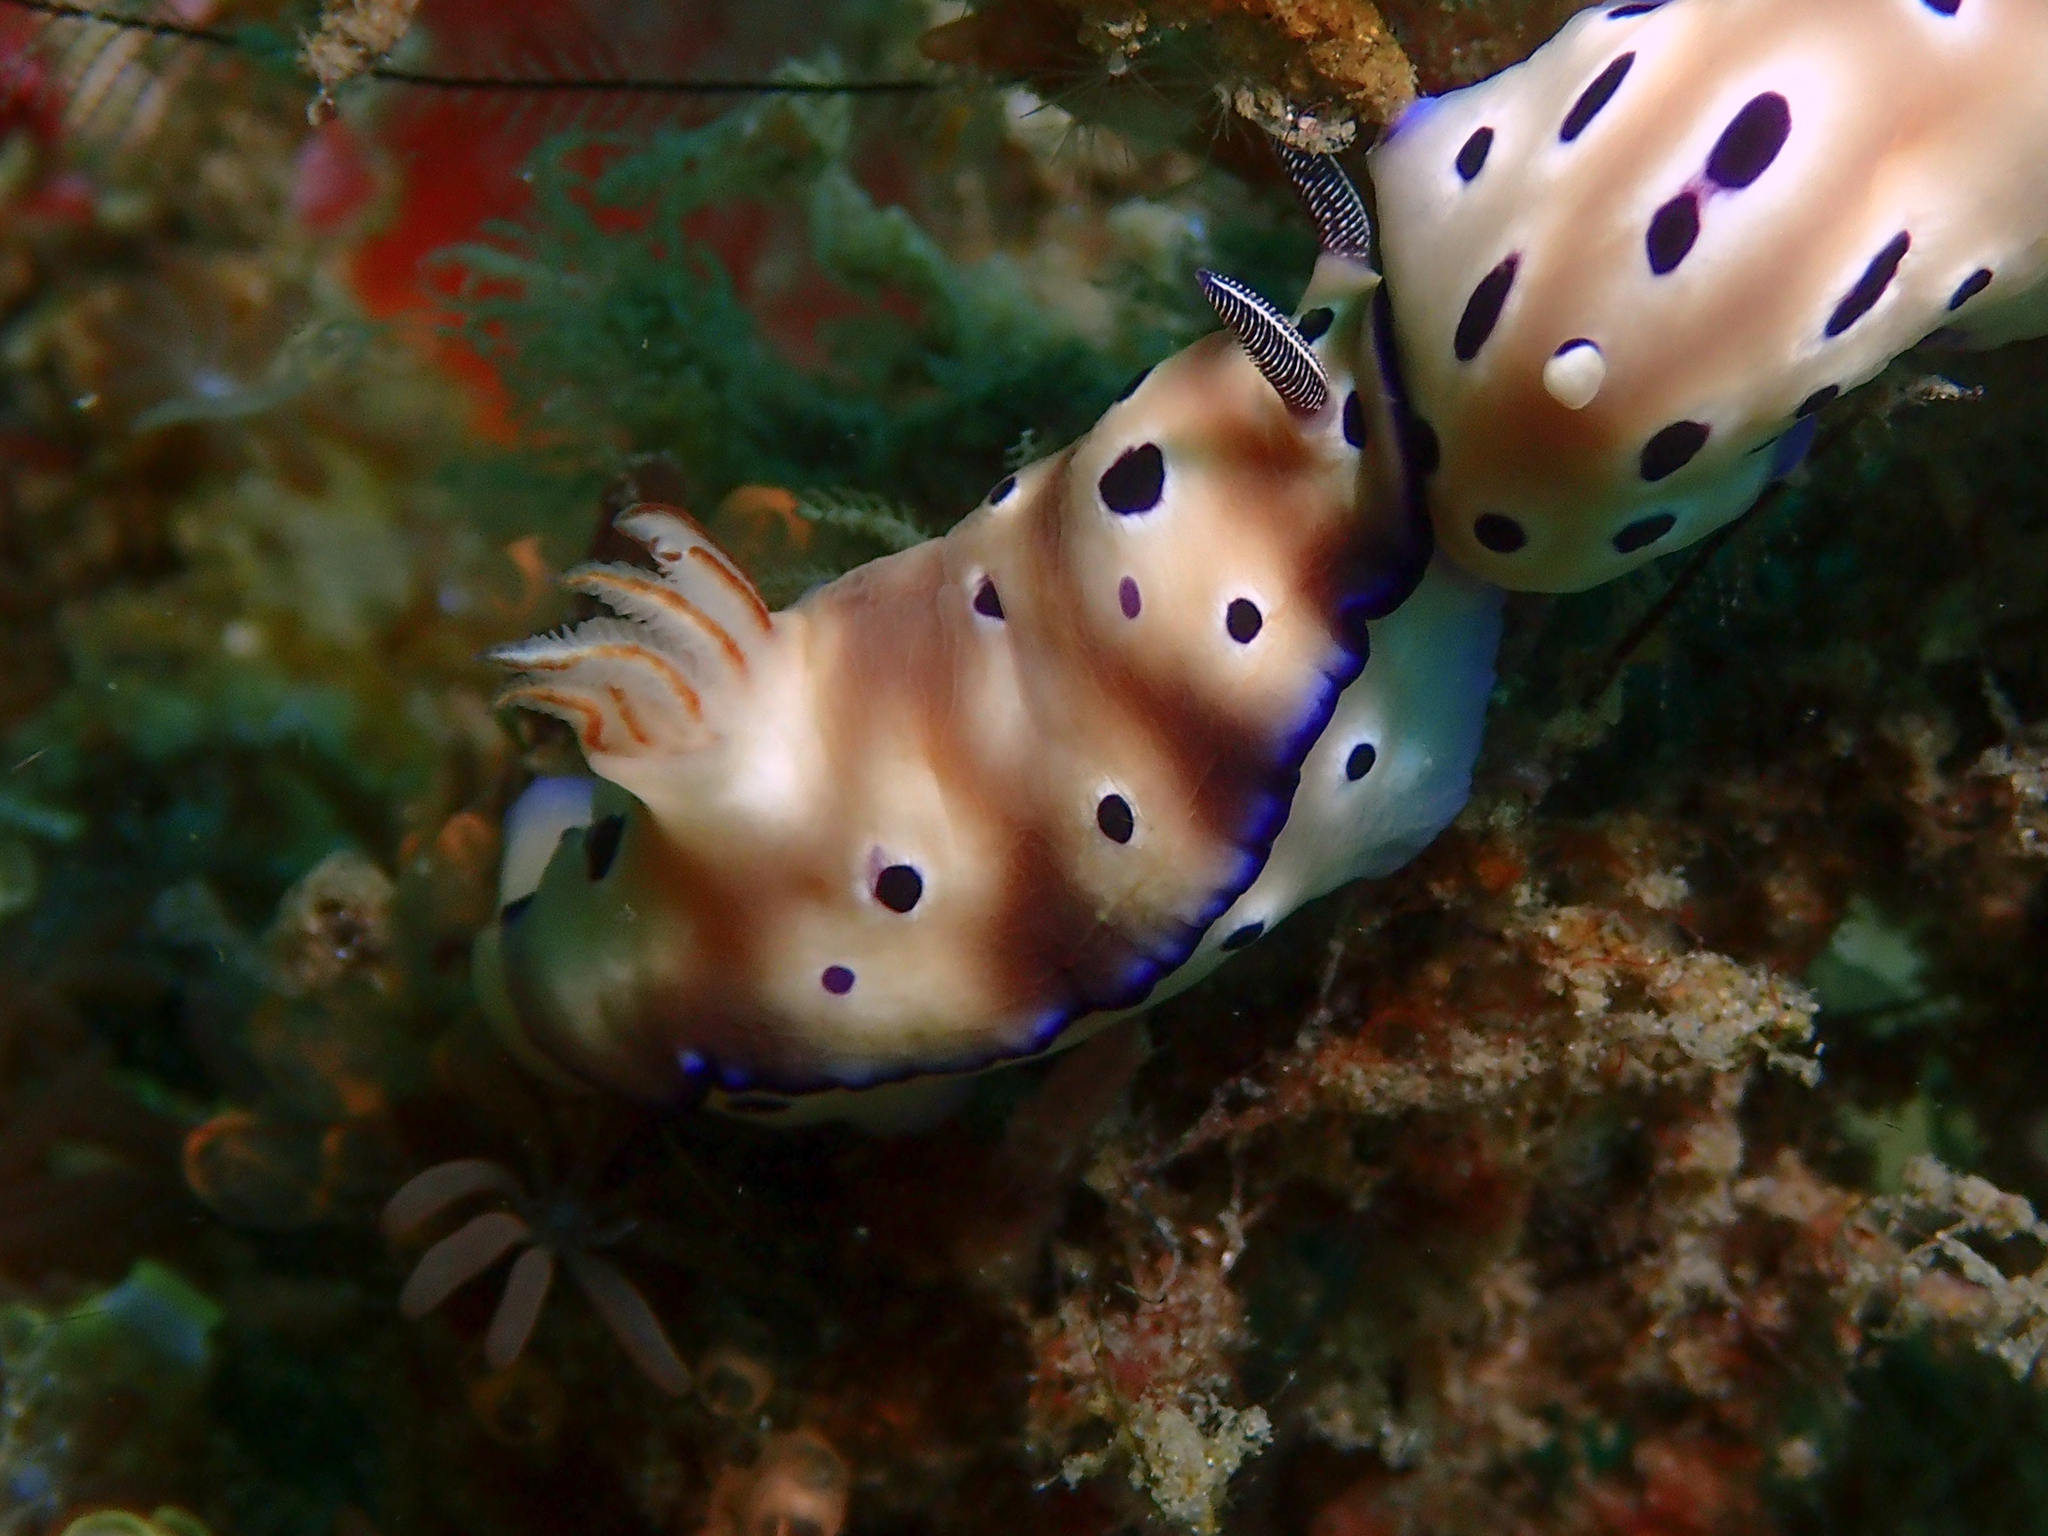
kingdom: Animalia
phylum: Mollusca
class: Gastropoda
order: Nudibranchia
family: Chromodorididae
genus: Hypselodoris
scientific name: Hypselodoris tryoni
